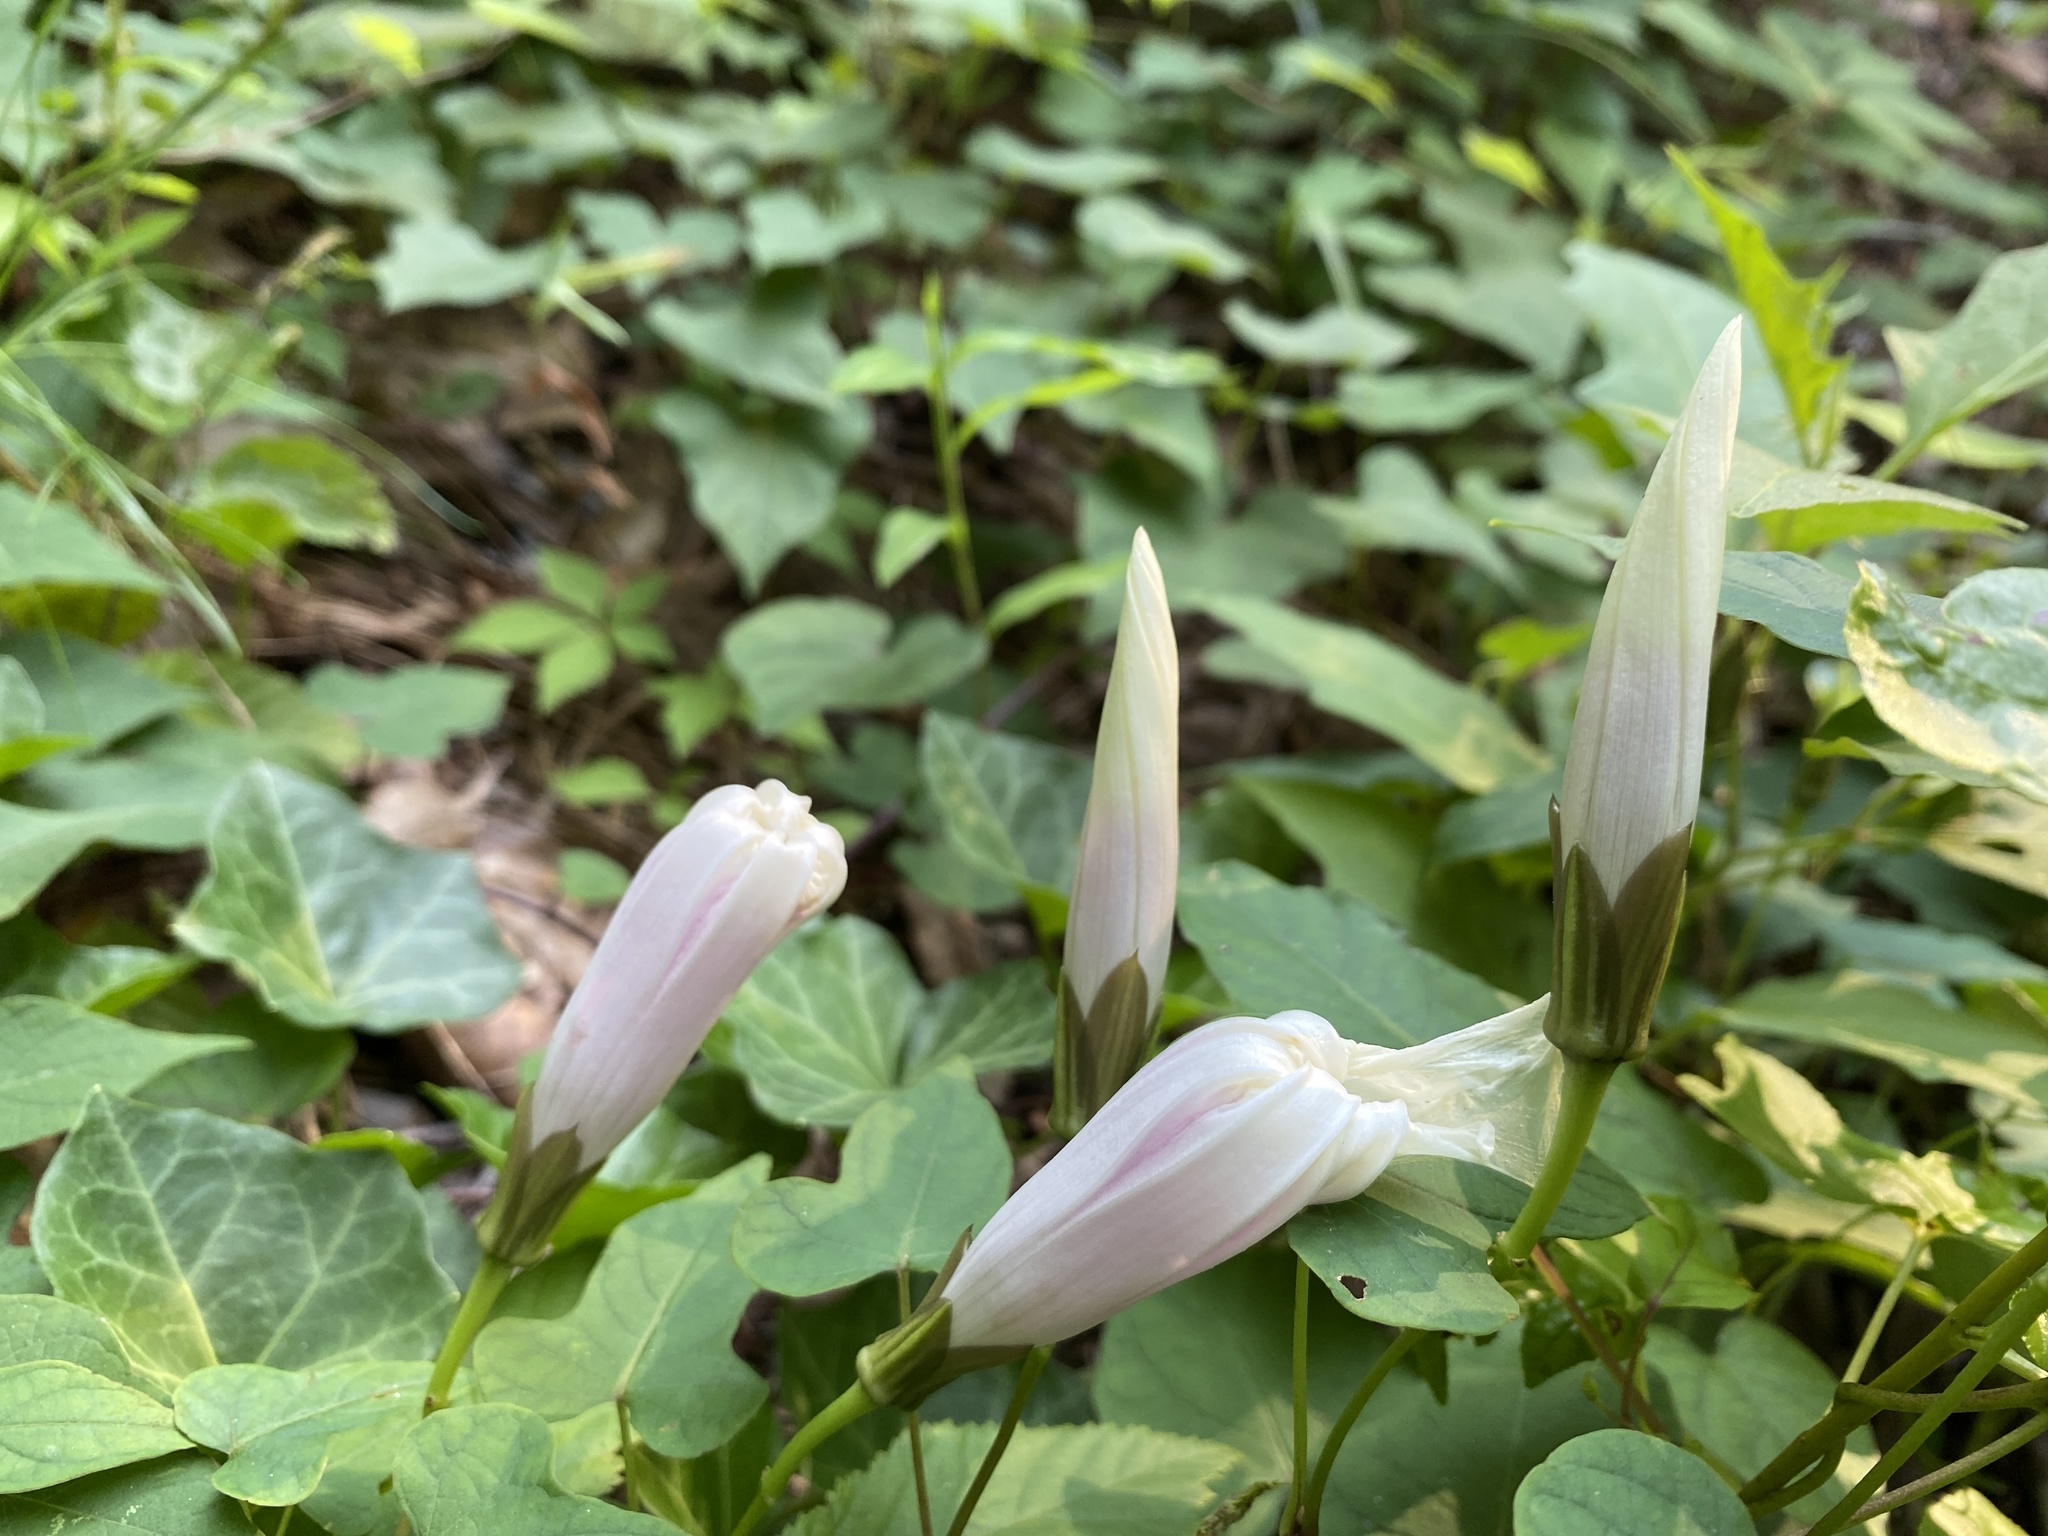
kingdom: Plantae
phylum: Tracheophyta
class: Magnoliopsida
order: Solanales
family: Convolvulaceae
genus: Ipomoea
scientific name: Ipomoea pandurata
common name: Man-of-the-earth
